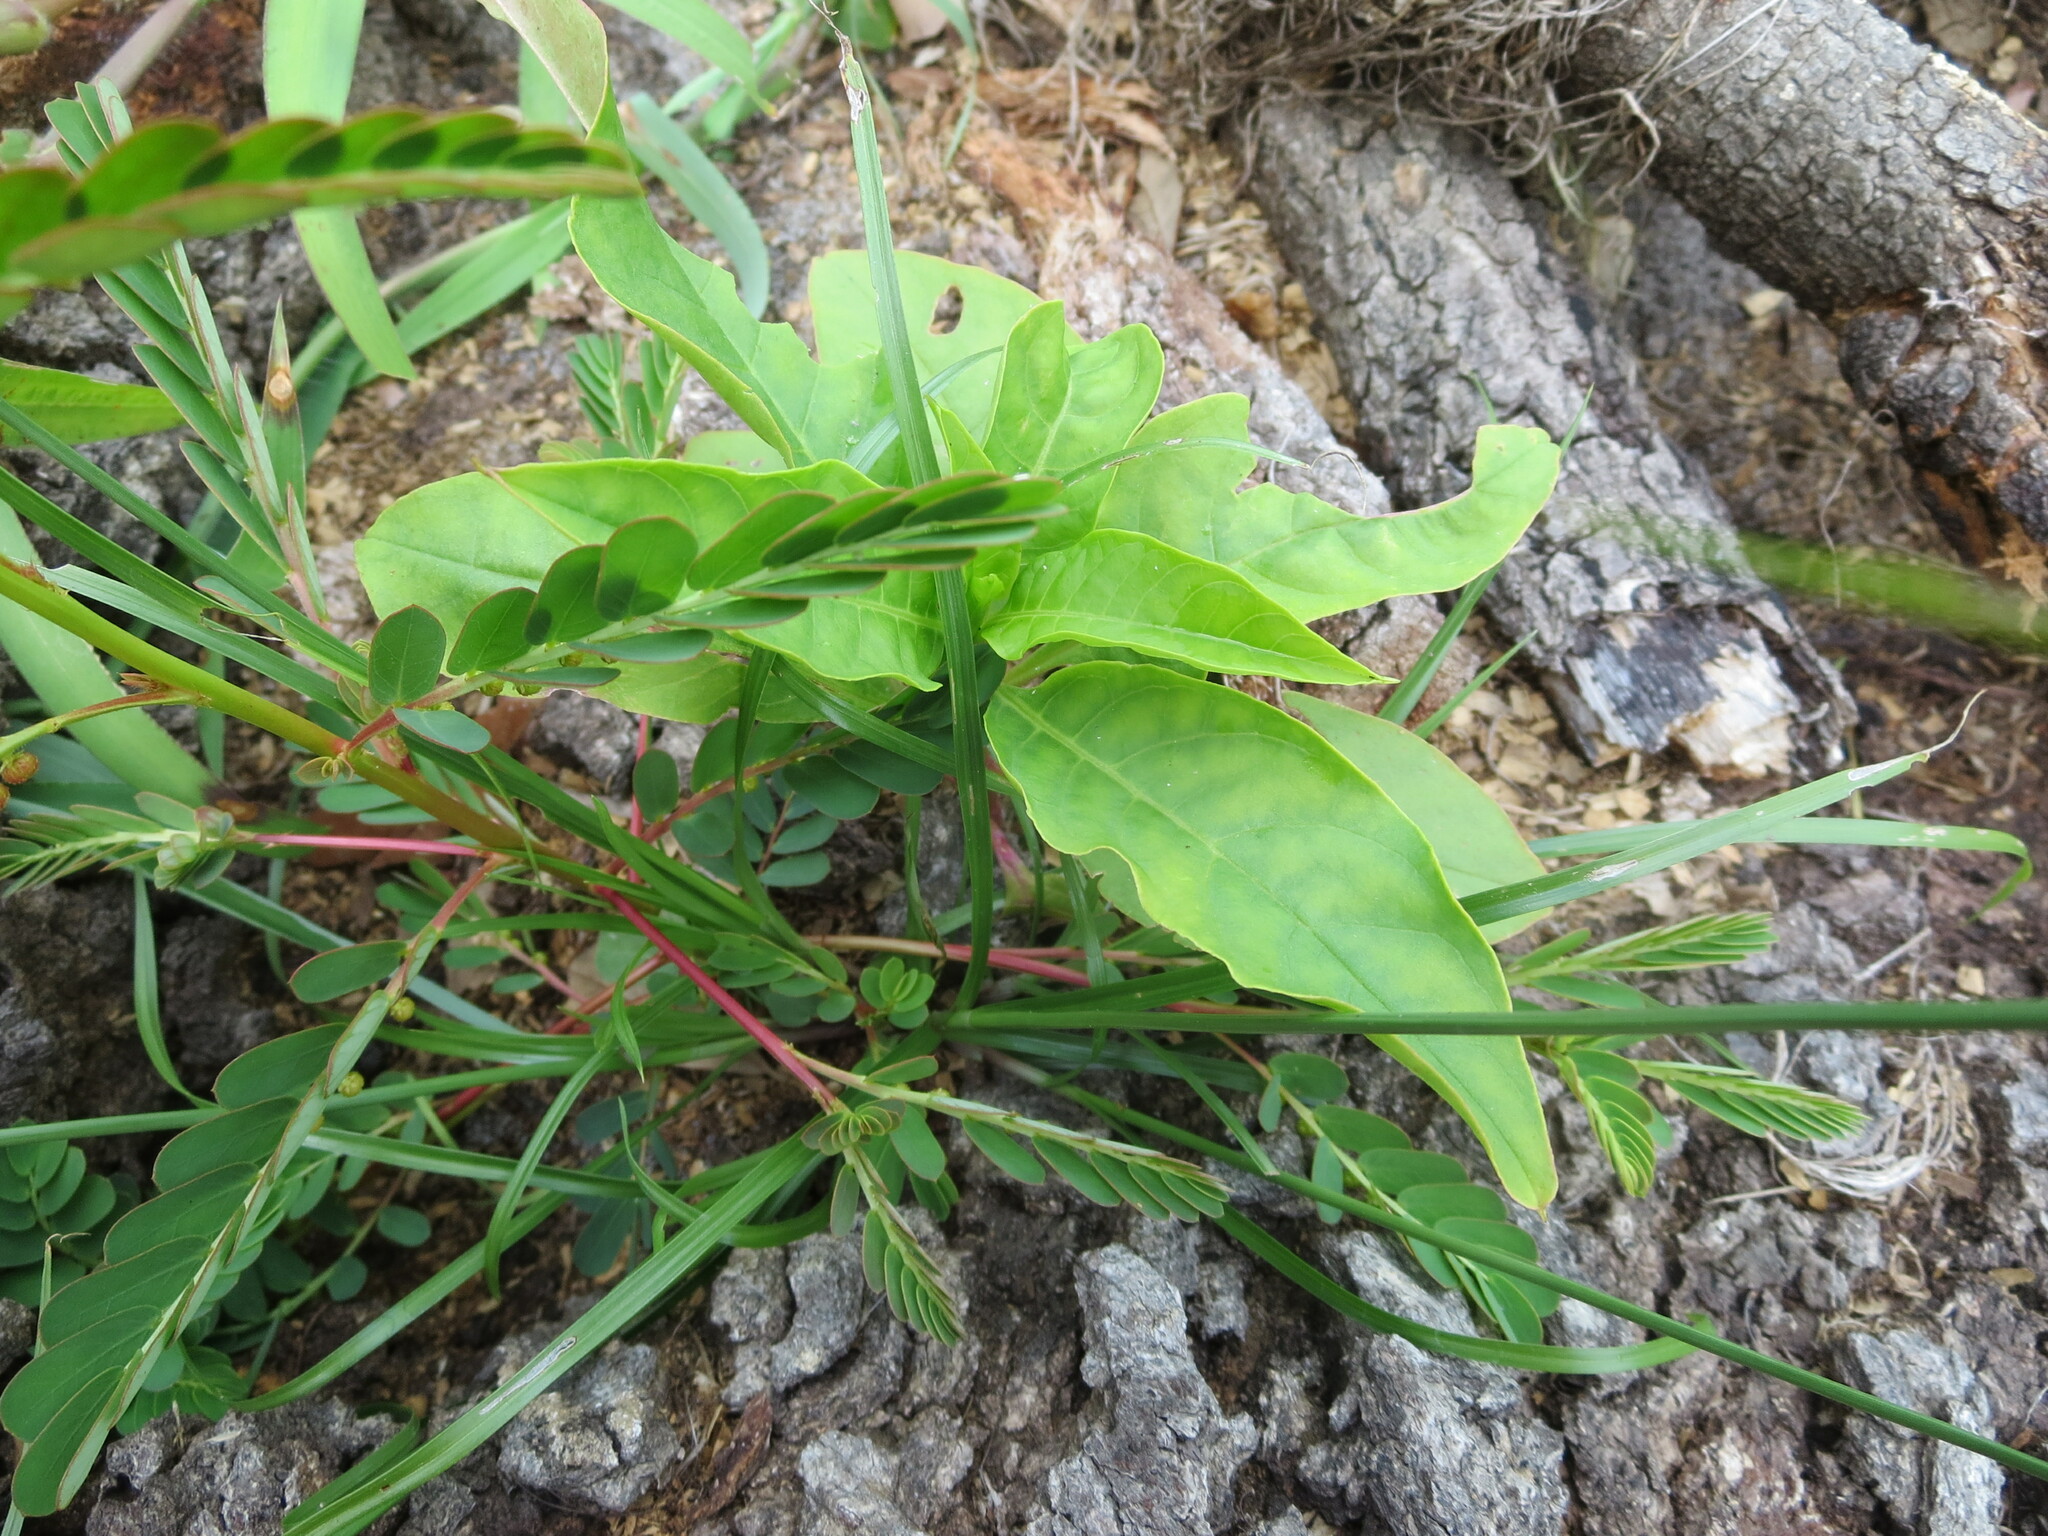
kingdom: Plantae
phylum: Tracheophyta
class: Magnoliopsida
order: Caryophyllales
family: Phytolaccaceae
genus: Phytolacca
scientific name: Phytolacca americana
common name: American pokeweed
